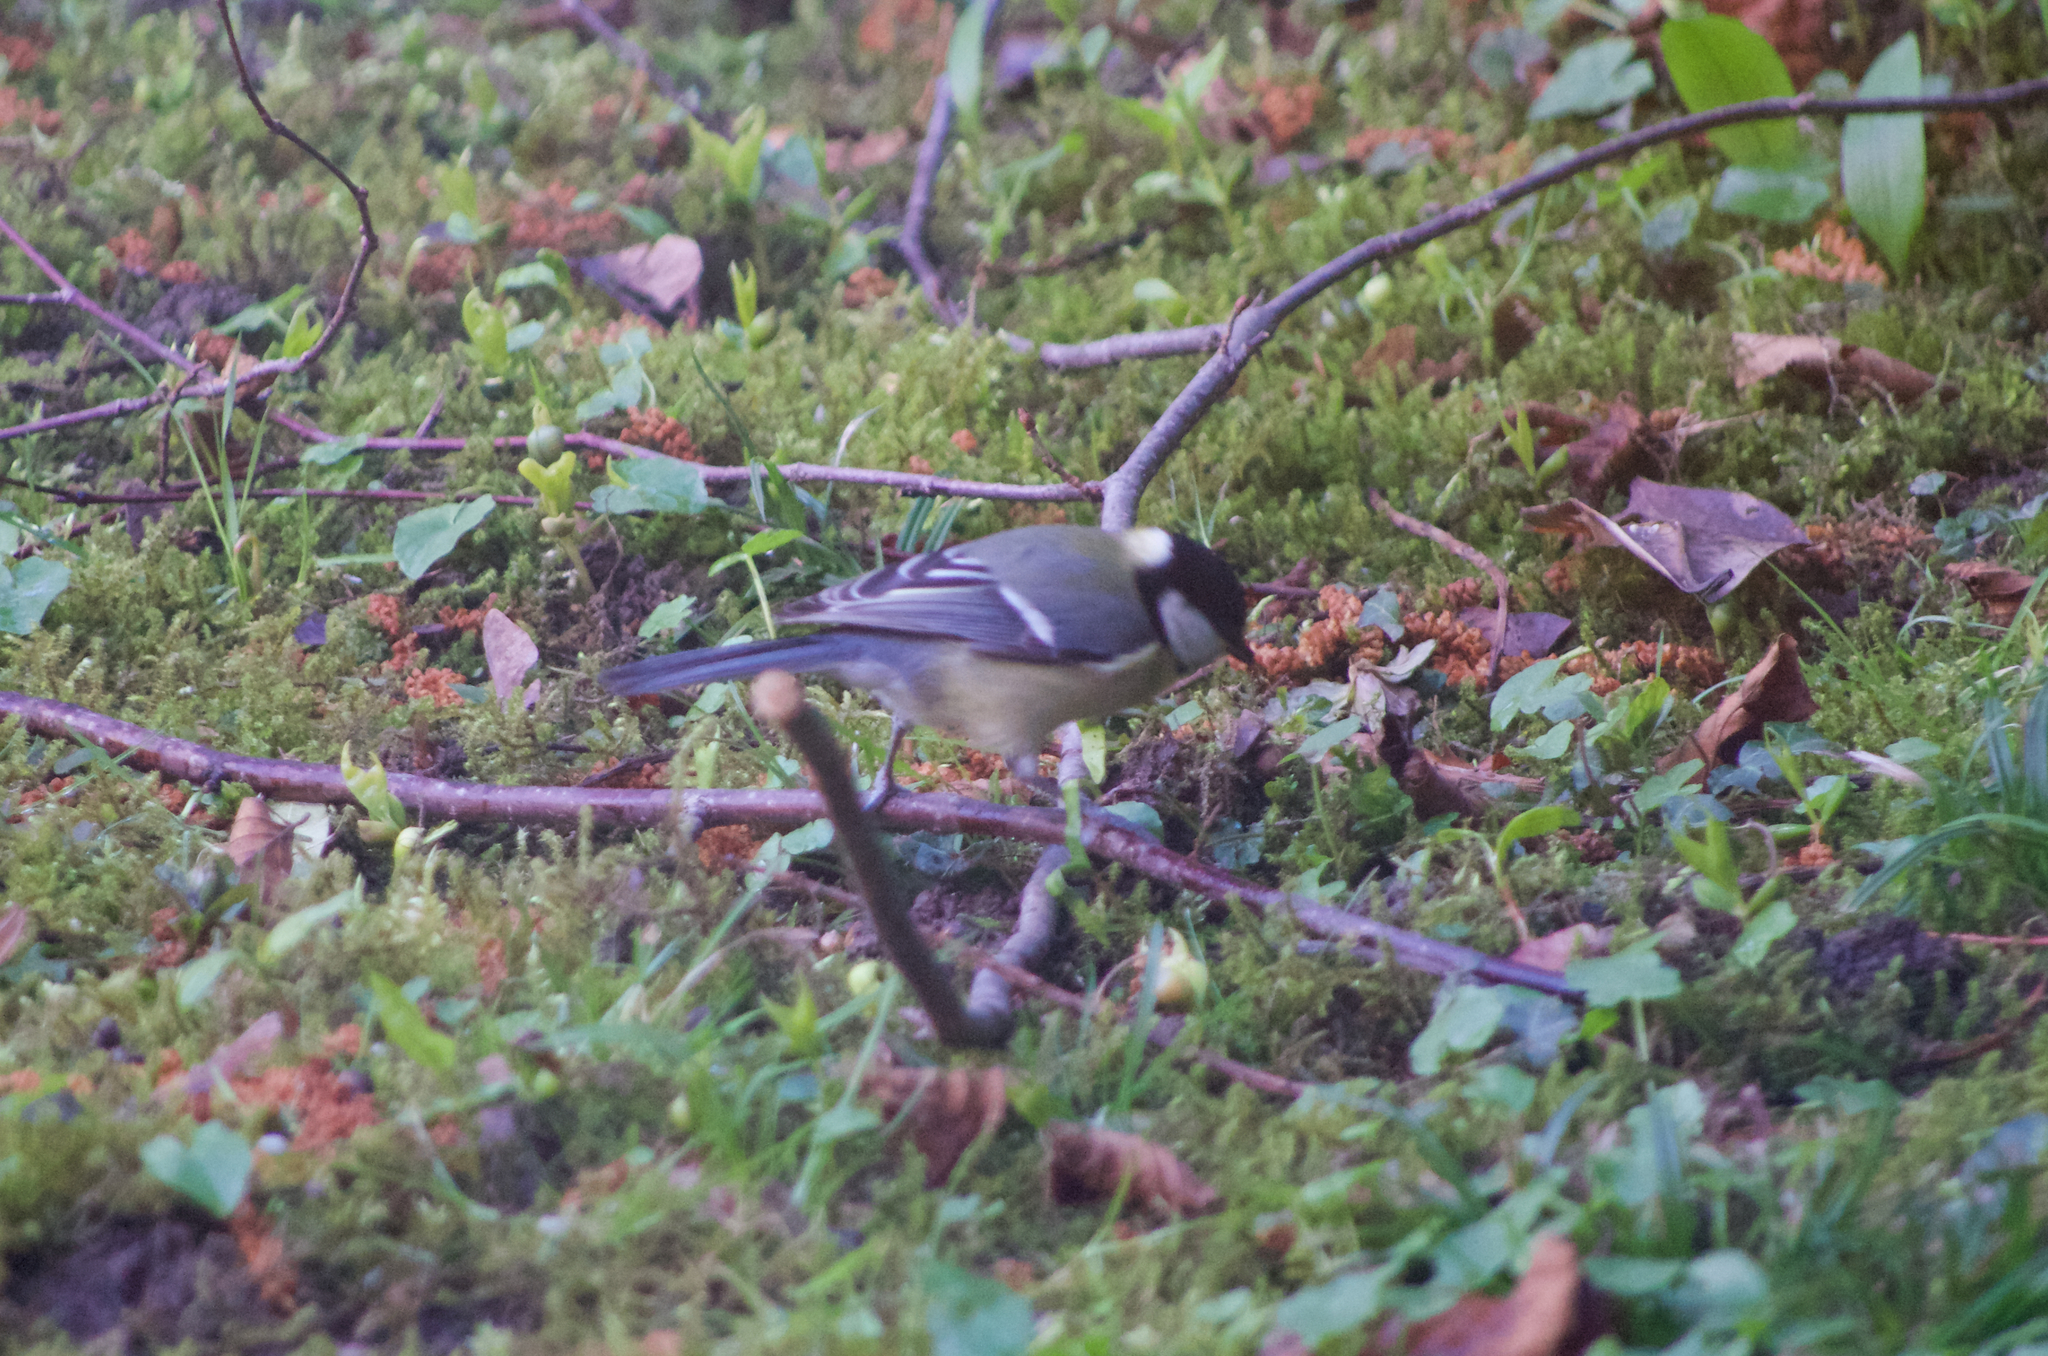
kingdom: Animalia
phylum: Chordata
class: Aves
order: Passeriformes
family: Paridae
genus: Parus
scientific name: Parus major
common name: Great tit
